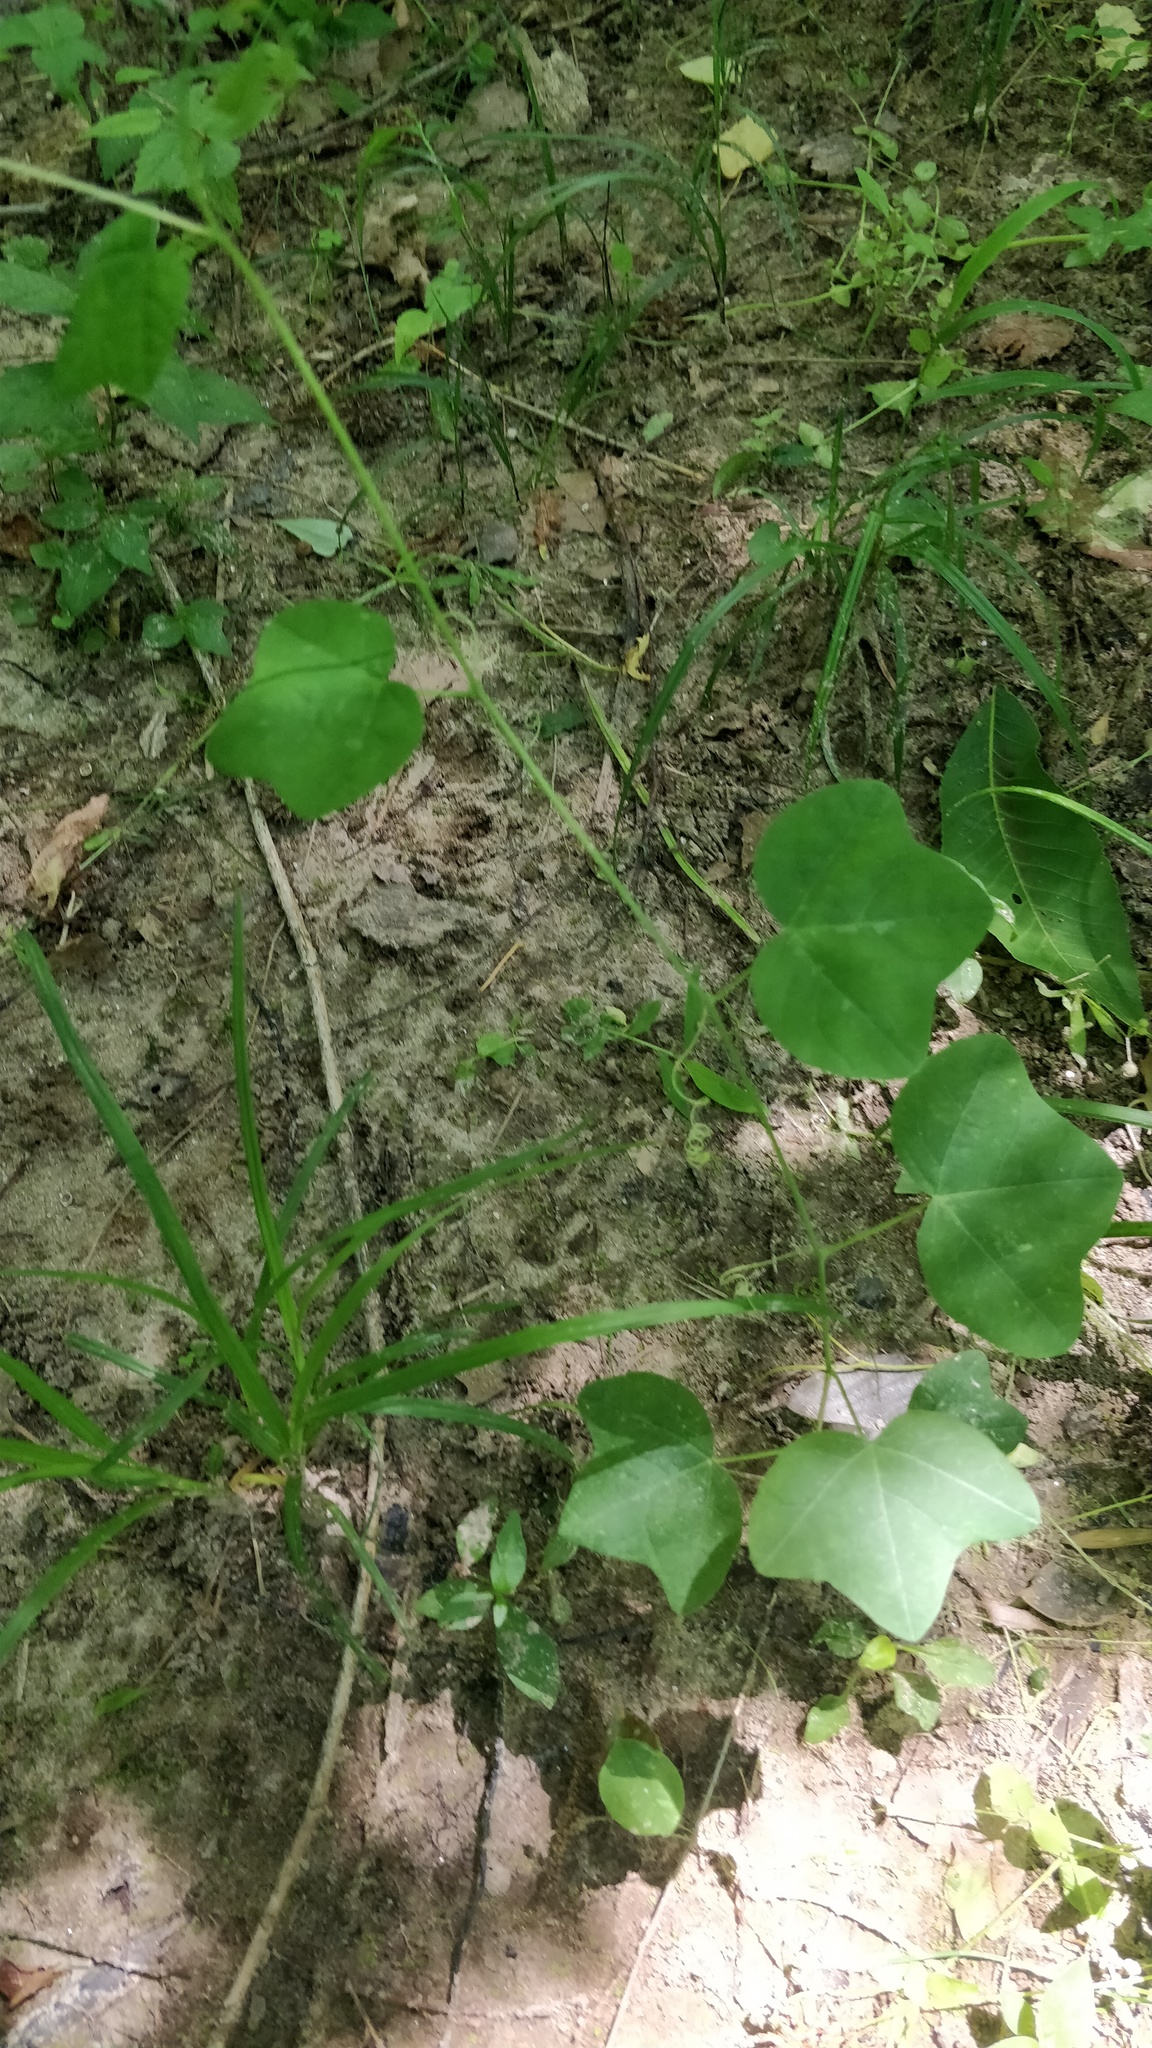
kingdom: Plantae
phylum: Tracheophyta
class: Magnoliopsida
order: Malpighiales
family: Passifloraceae
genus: Passiflora
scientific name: Passiflora lutea
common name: Yellow passionflower
